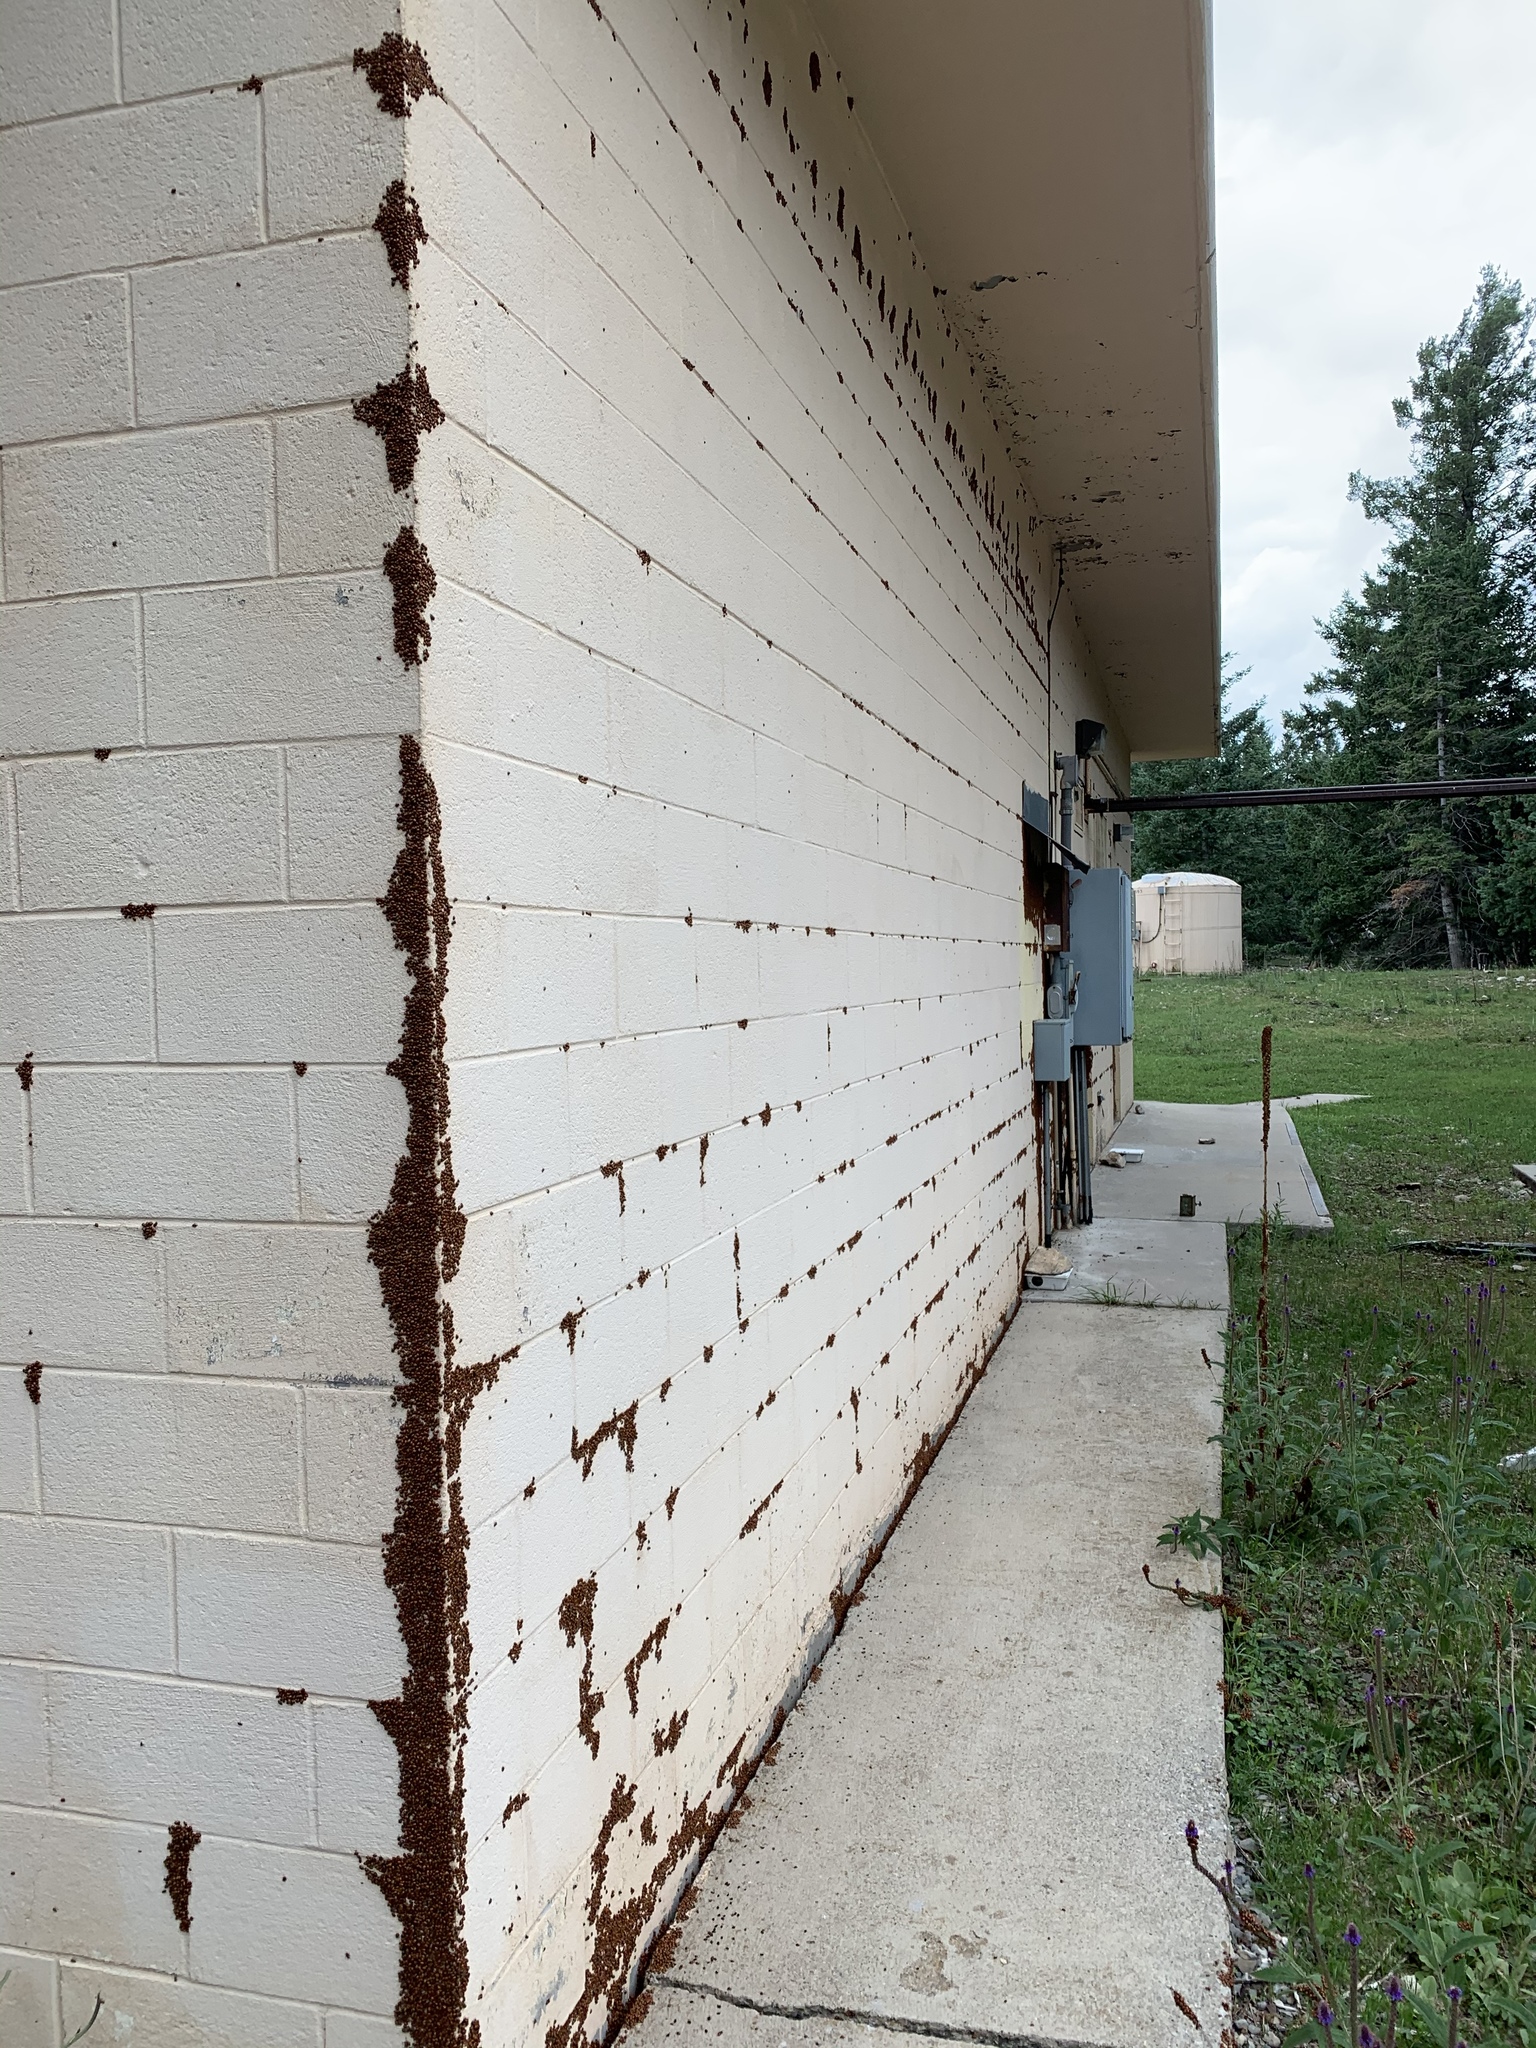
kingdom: Animalia
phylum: Arthropoda
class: Insecta
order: Coleoptera
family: Coccinellidae
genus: Hippodamia
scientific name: Hippodamia convergens
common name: Convergent lady beetle
